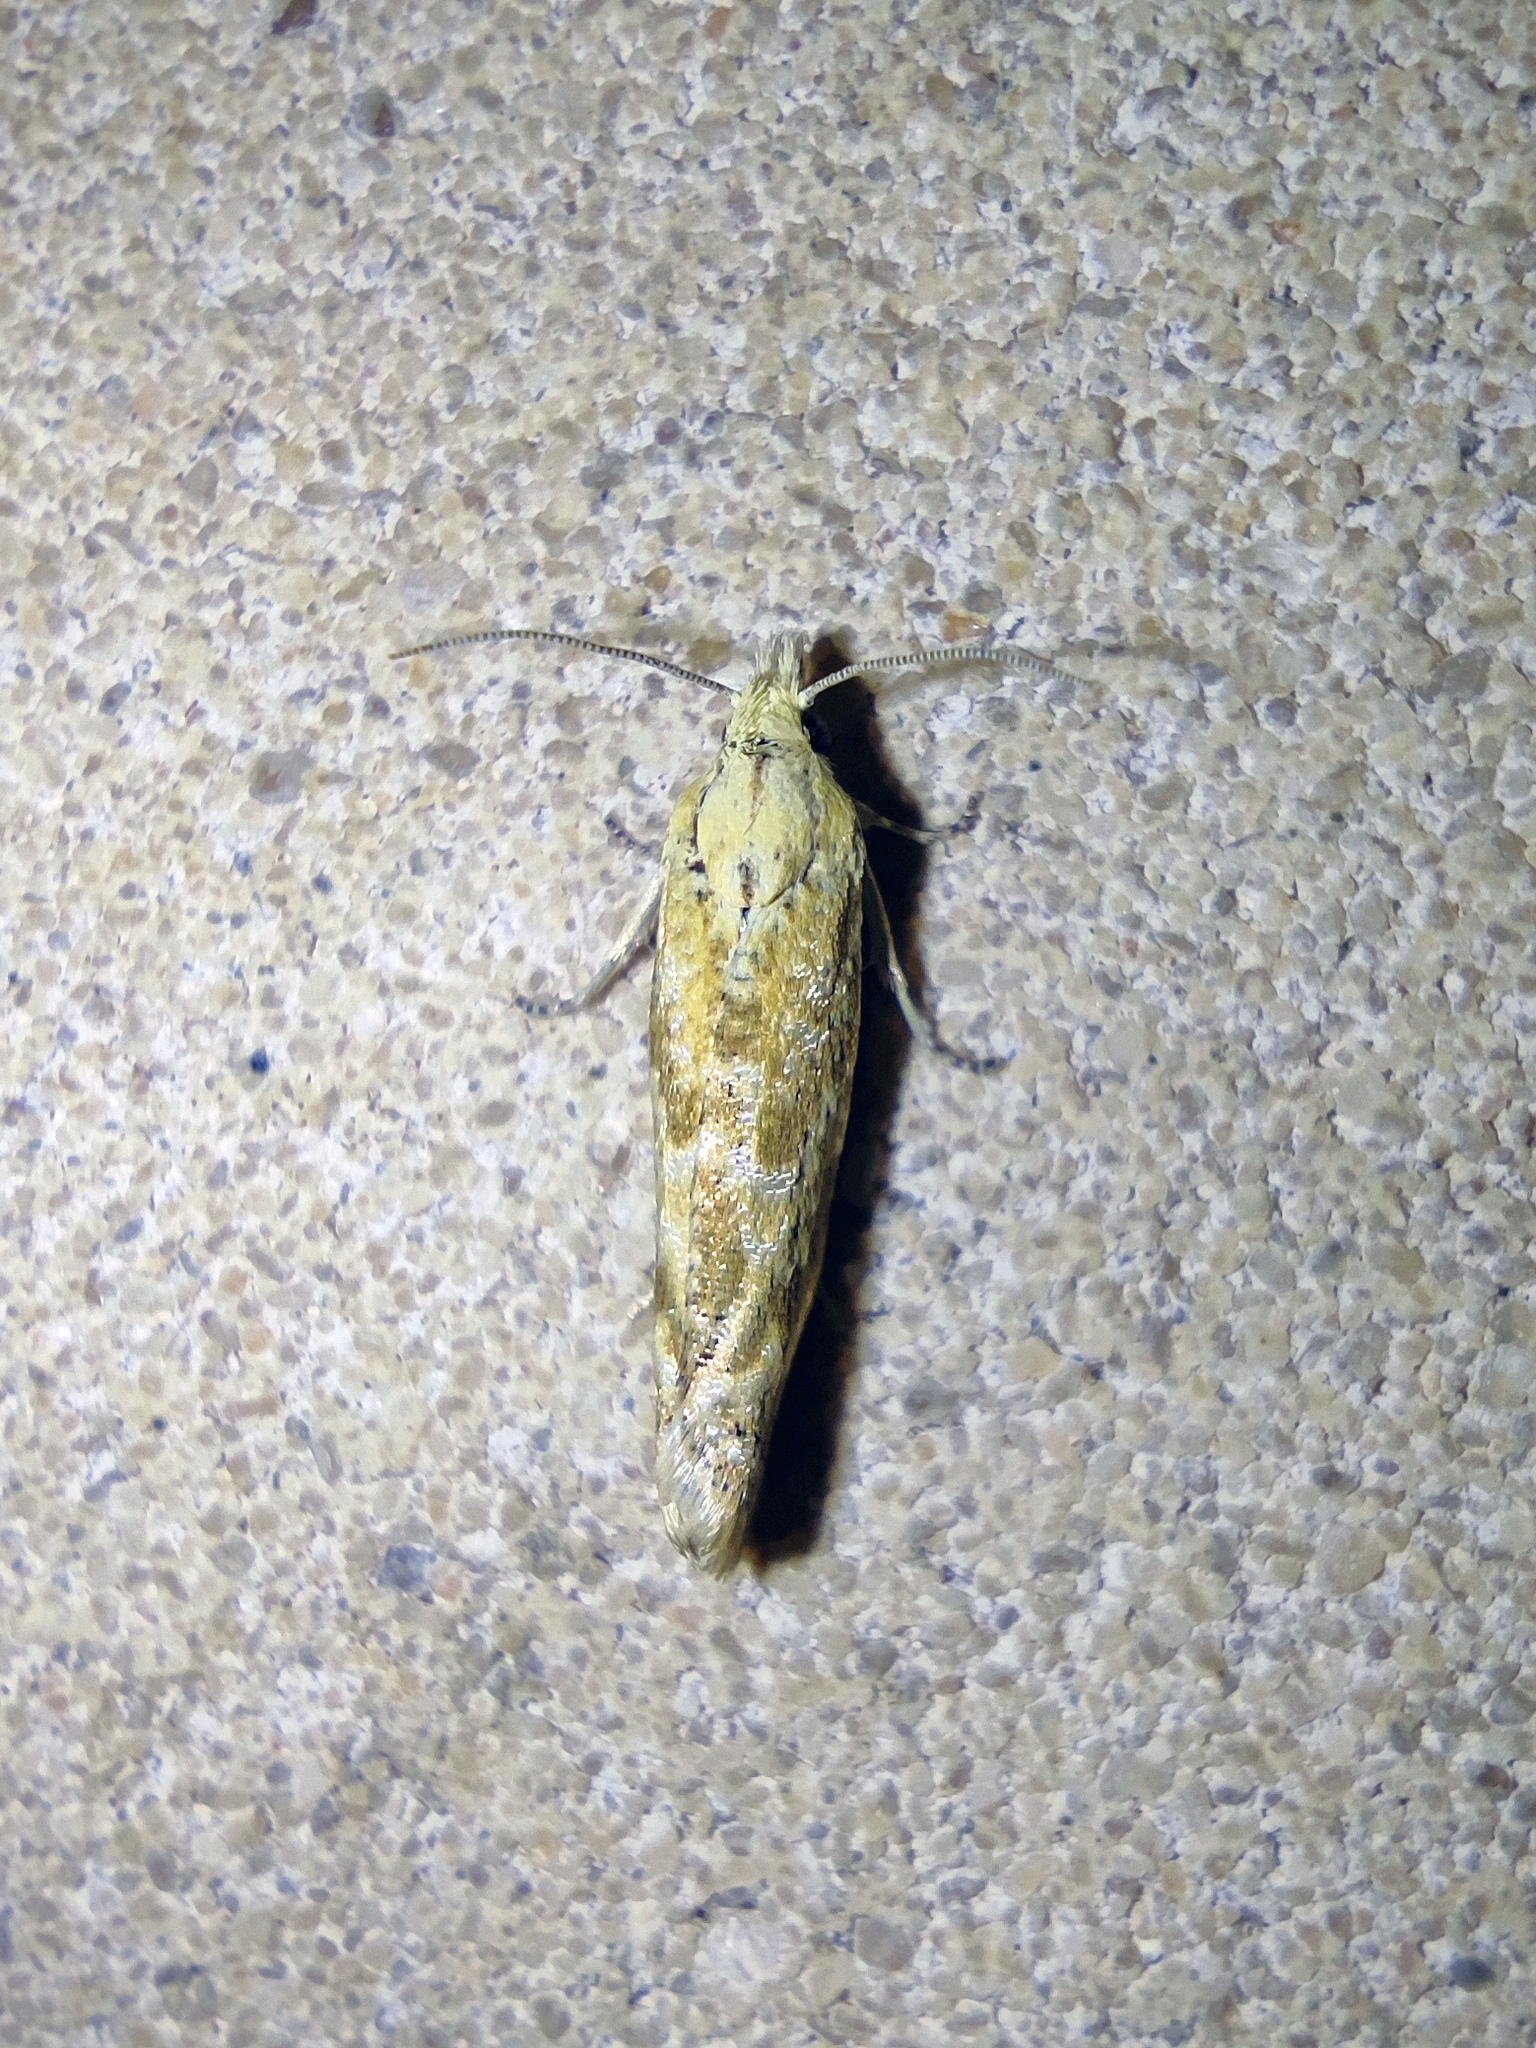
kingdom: Animalia
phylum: Arthropoda
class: Insecta
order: Lepidoptera
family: Tortricidae
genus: Thiodia
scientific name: Thiodia citrana
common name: Lemon bell
